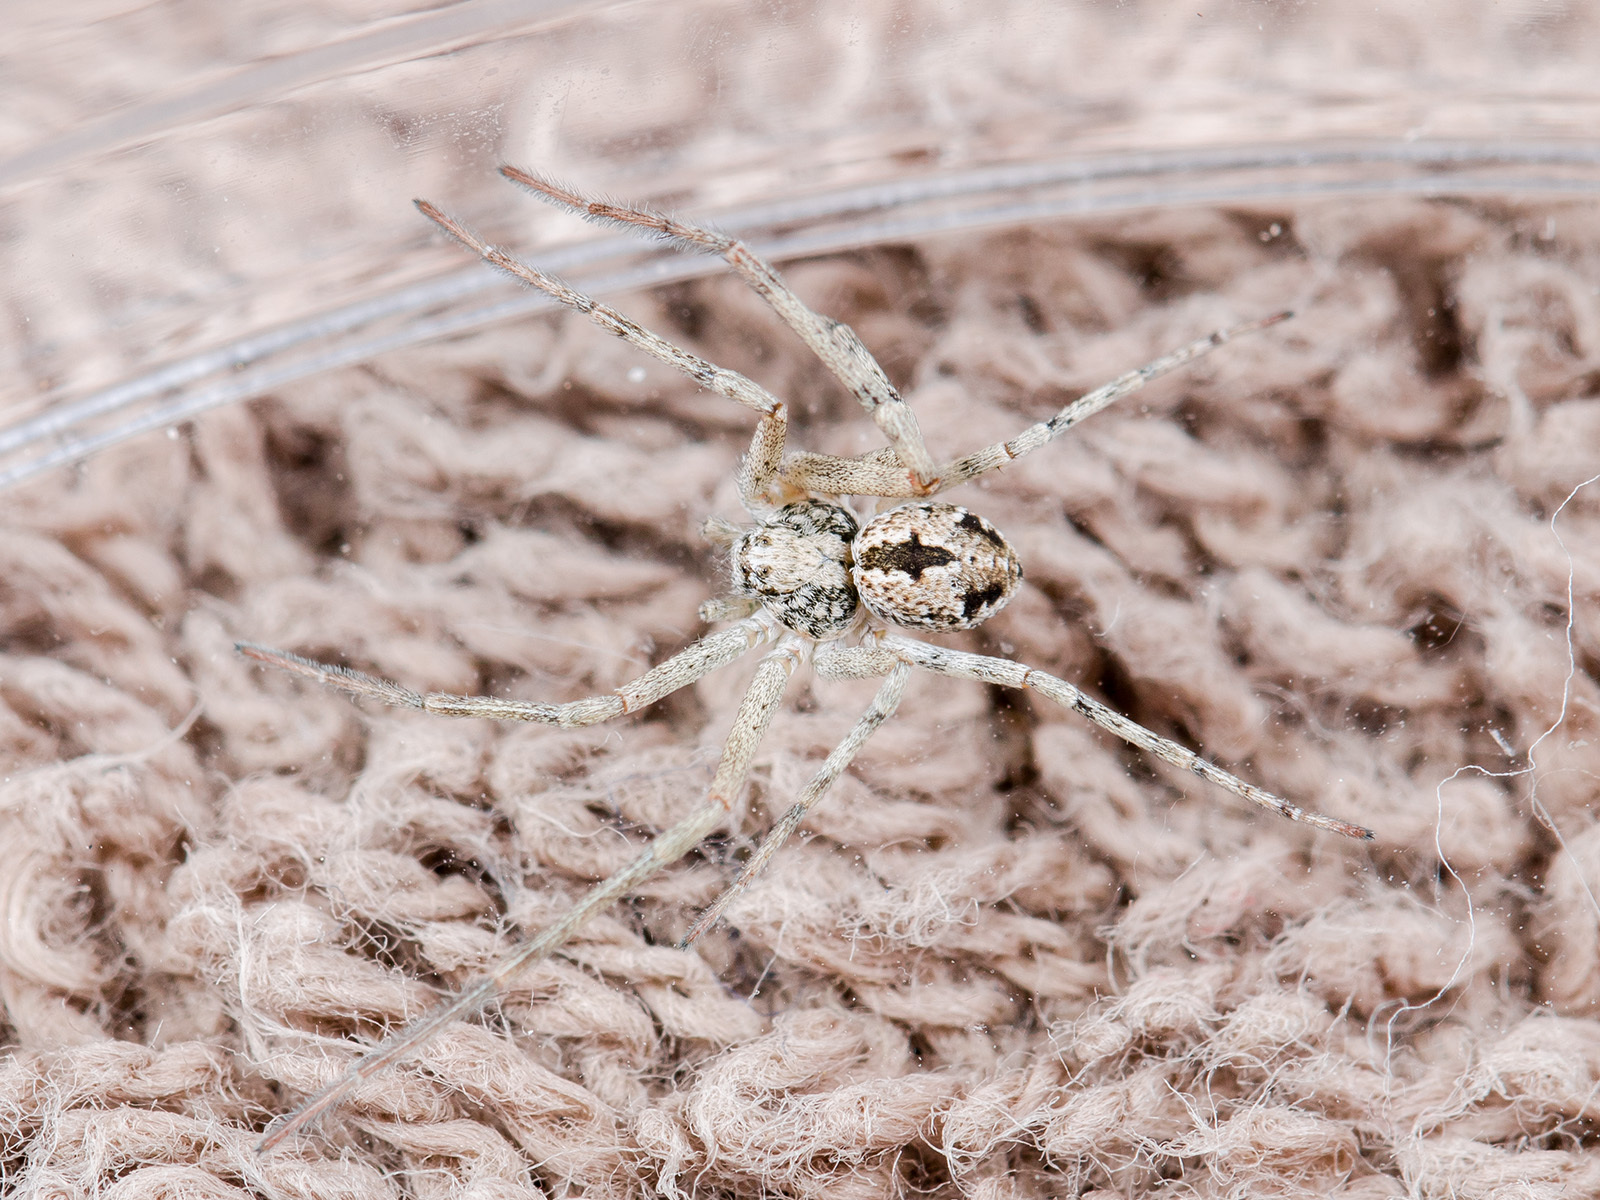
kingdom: Animalia
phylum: Arthropoda
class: Arachnida
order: Araneae
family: Philodromidae
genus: Rhysodromus
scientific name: Rhysodromus fallax
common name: Sand running-spider
